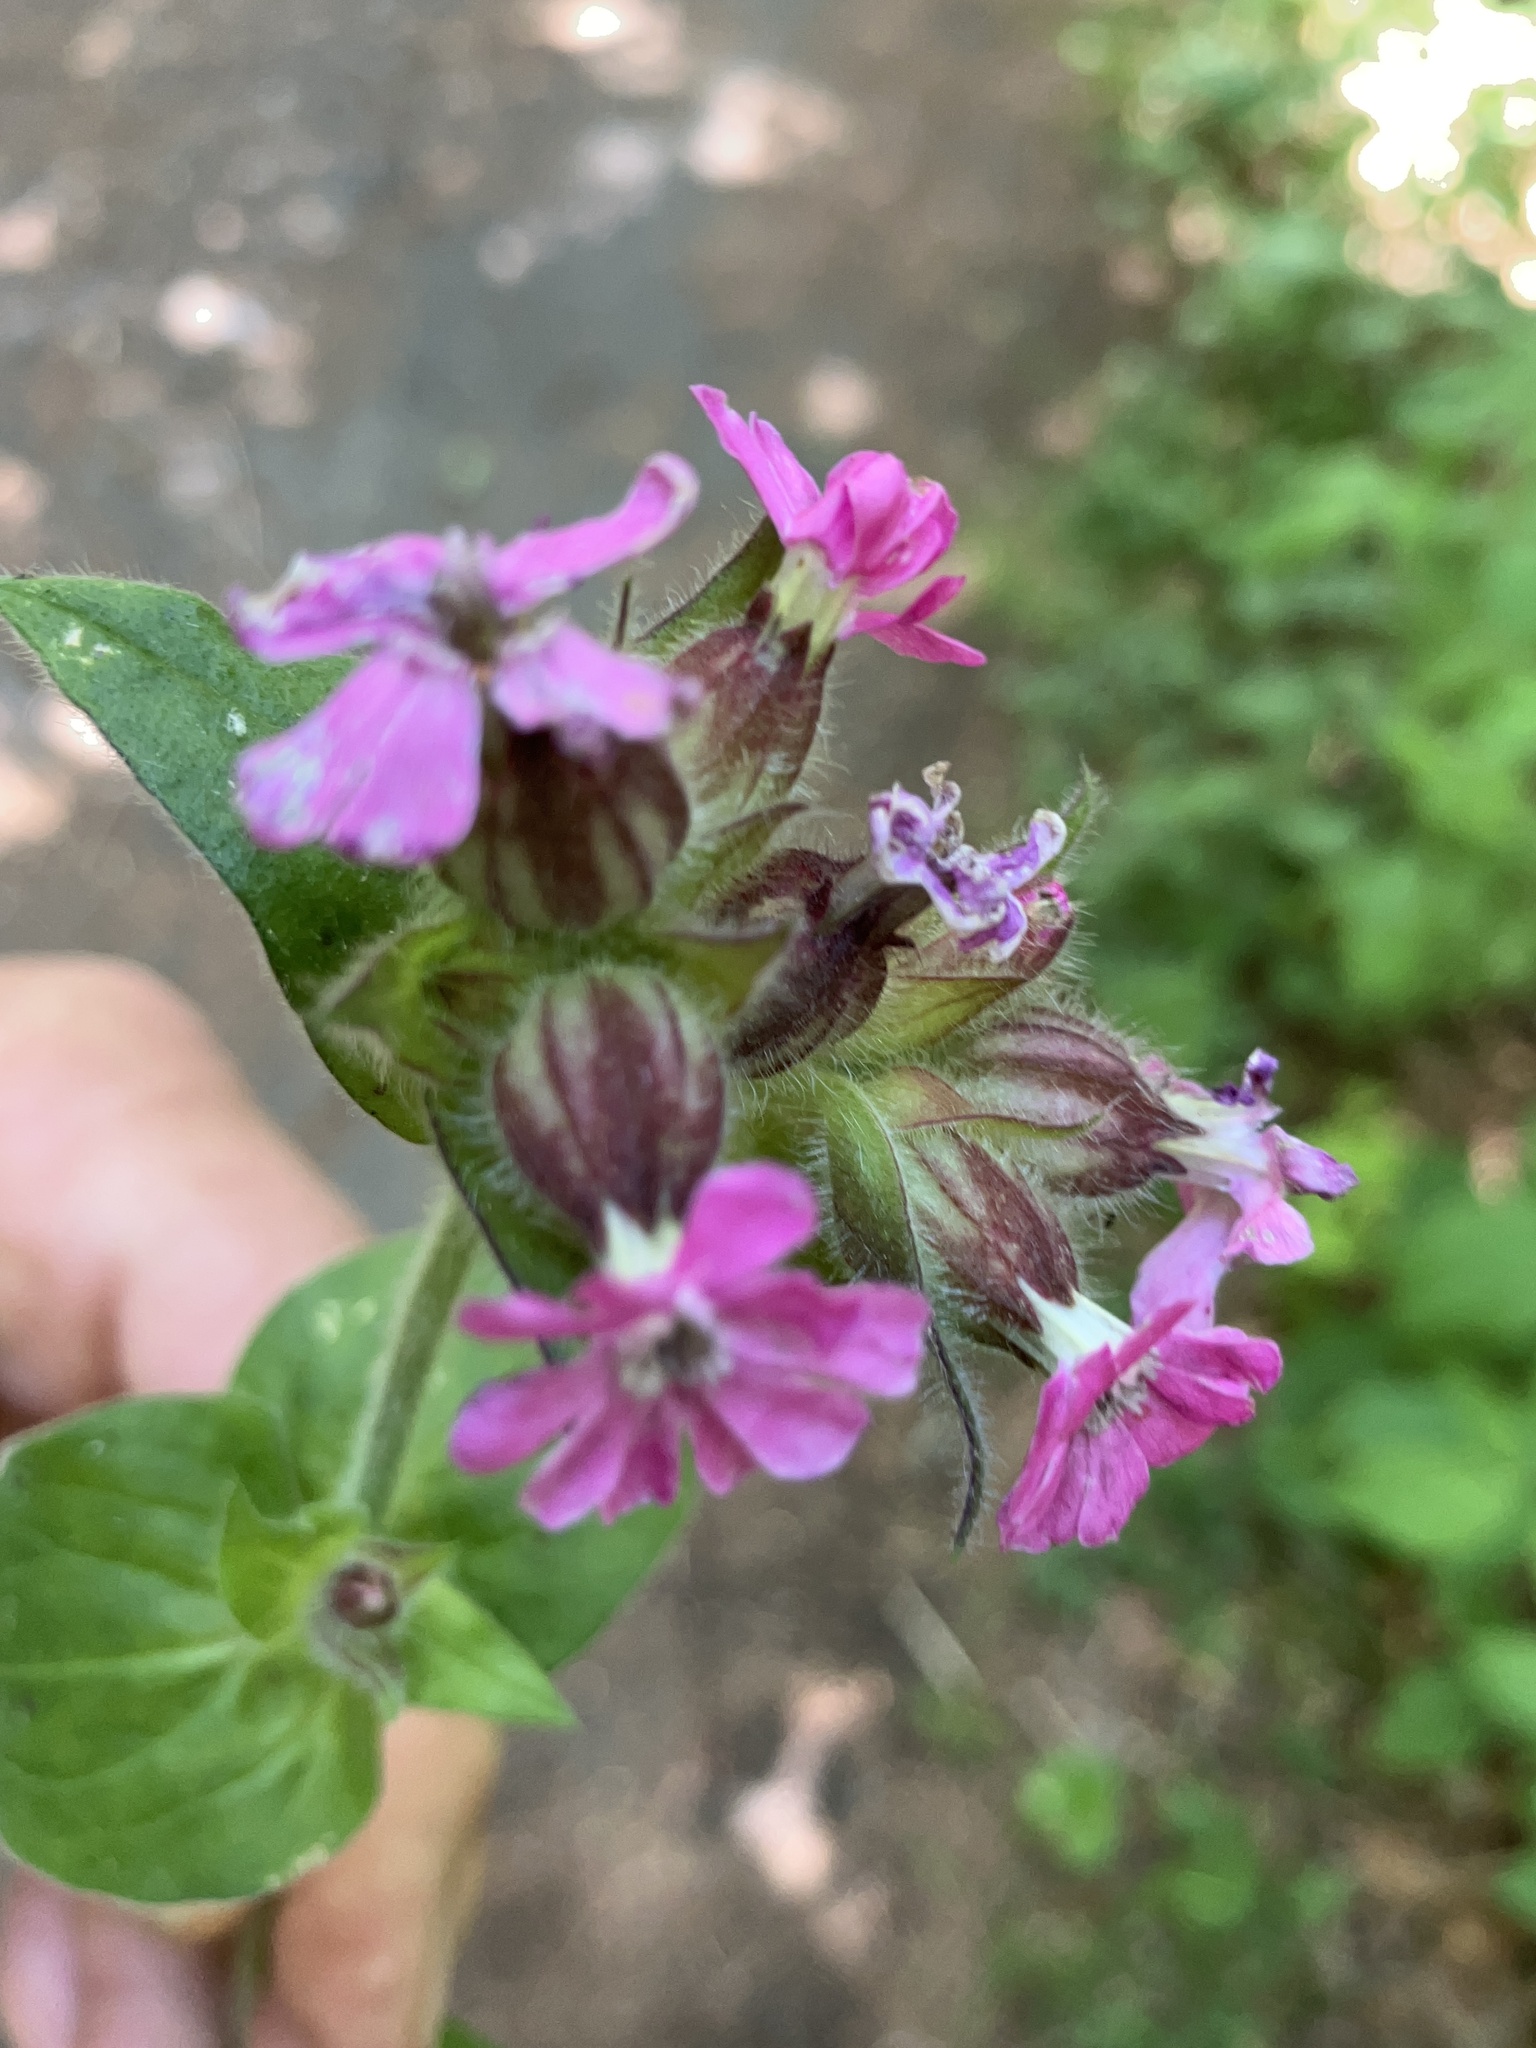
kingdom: Plantae
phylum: Tracheophyta
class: Magnoliopsida
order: Caryophyllales
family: Caryophyllaceae
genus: Silene
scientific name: Silene dioica
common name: Red campion
